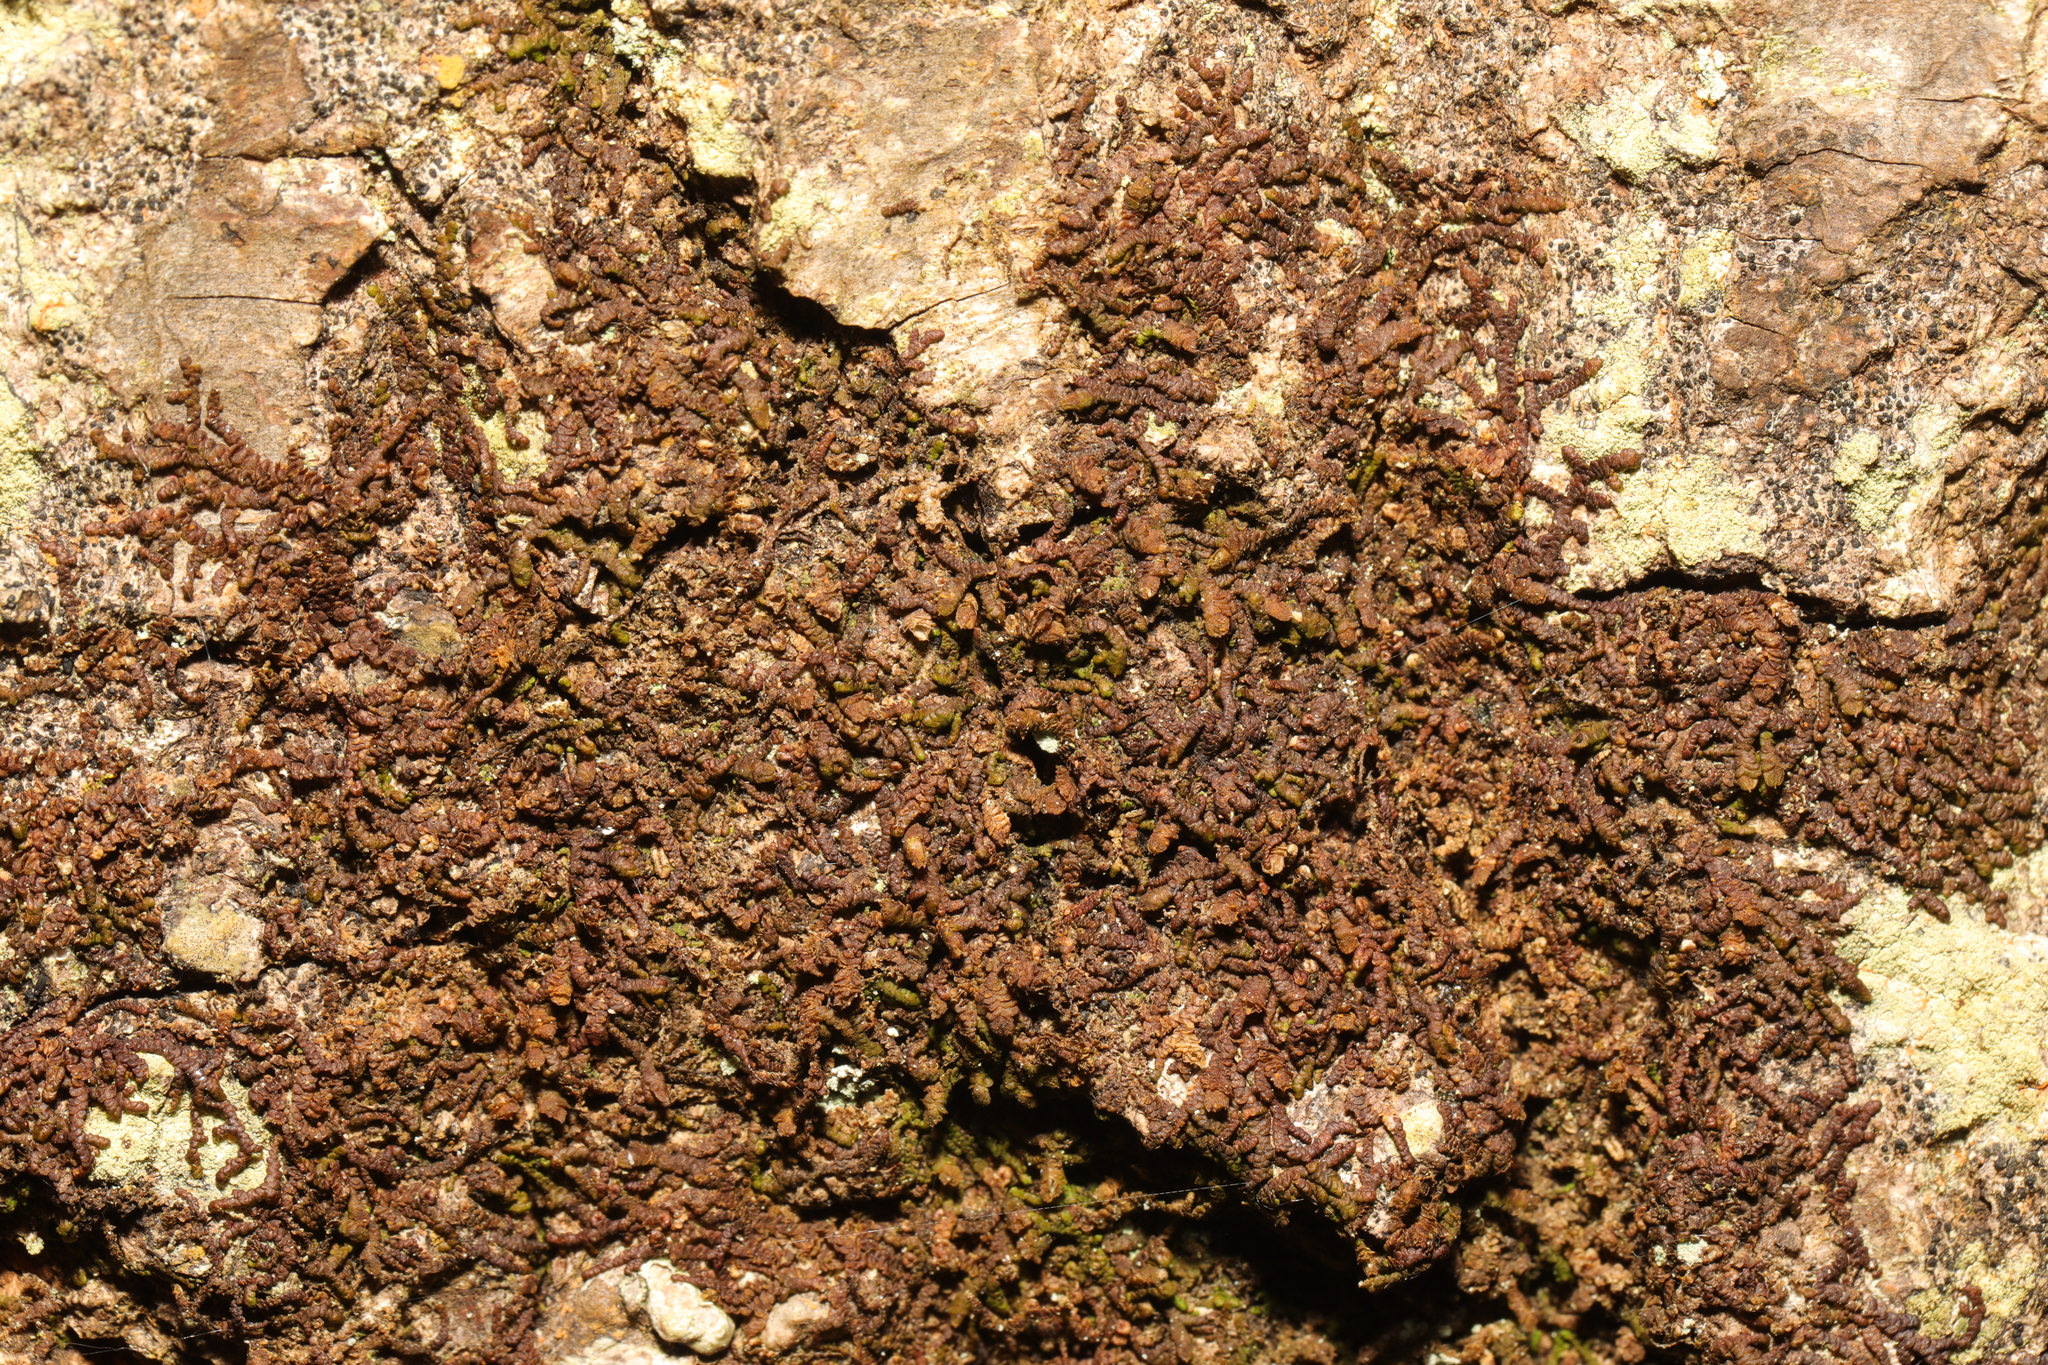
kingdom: Plantae
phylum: Marchantiophyta
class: Jungermanniopsida
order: Porellales
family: Frullaniaceae
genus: Frullania
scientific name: Frullania dilatata
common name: Dilated scalewort
